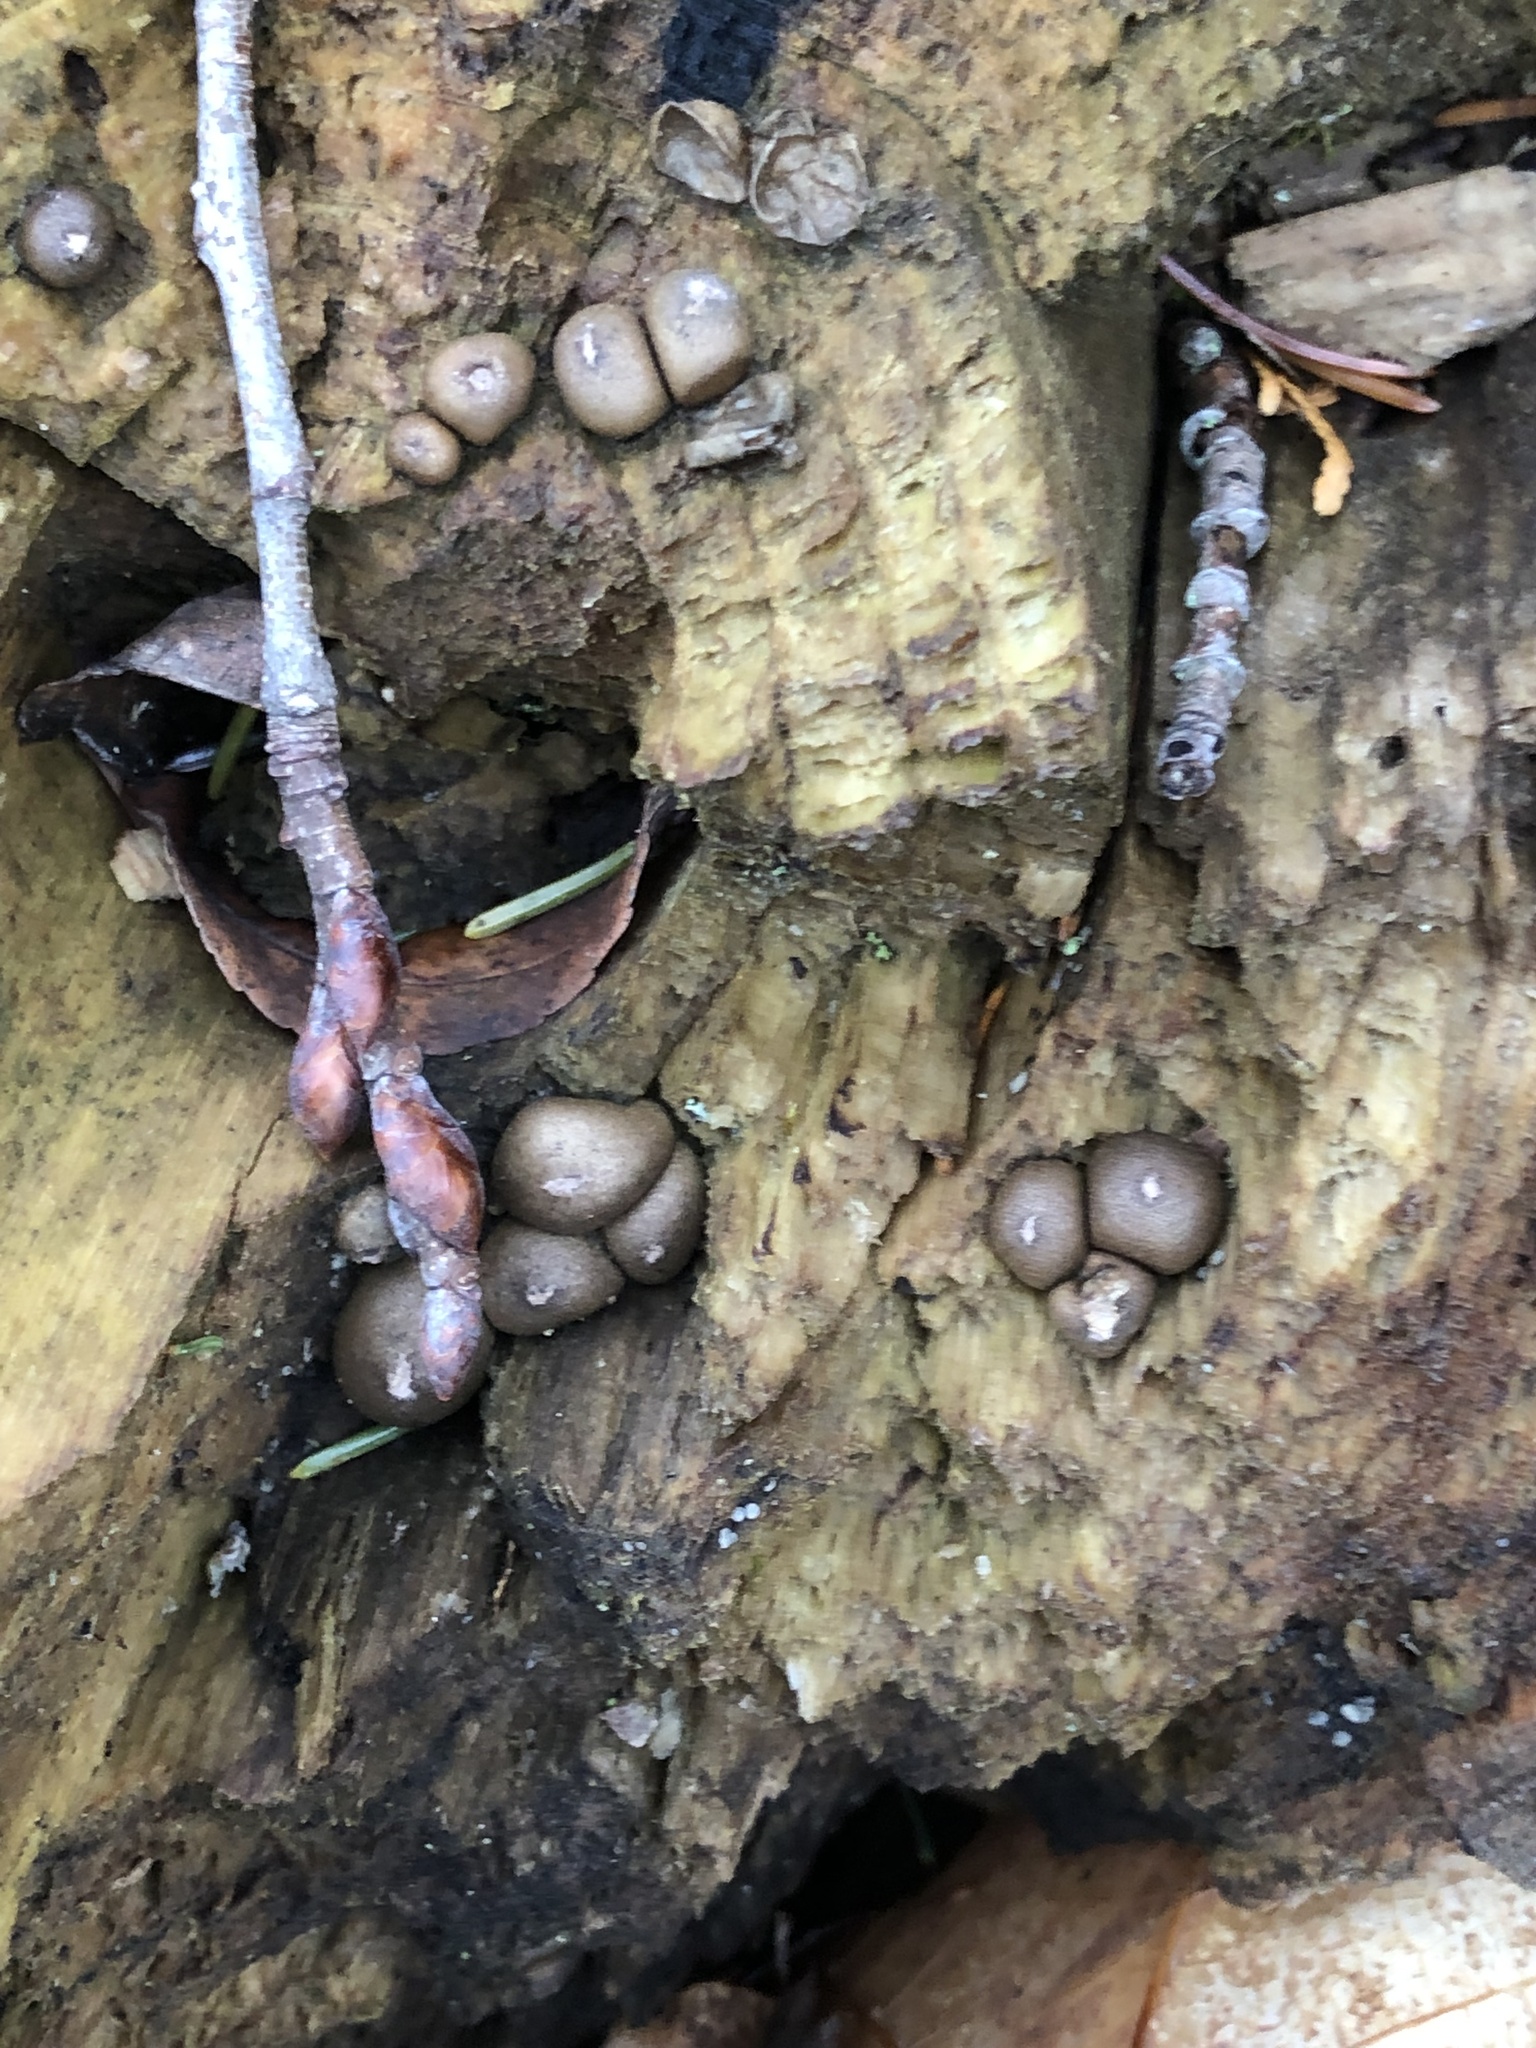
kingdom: Protozoa
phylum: Mycetozoa
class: Myxomycetes
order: Cribrariales
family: Tubiferaceae
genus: Lycogala
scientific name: Lycogala epidendrum
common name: Wolf's milk
